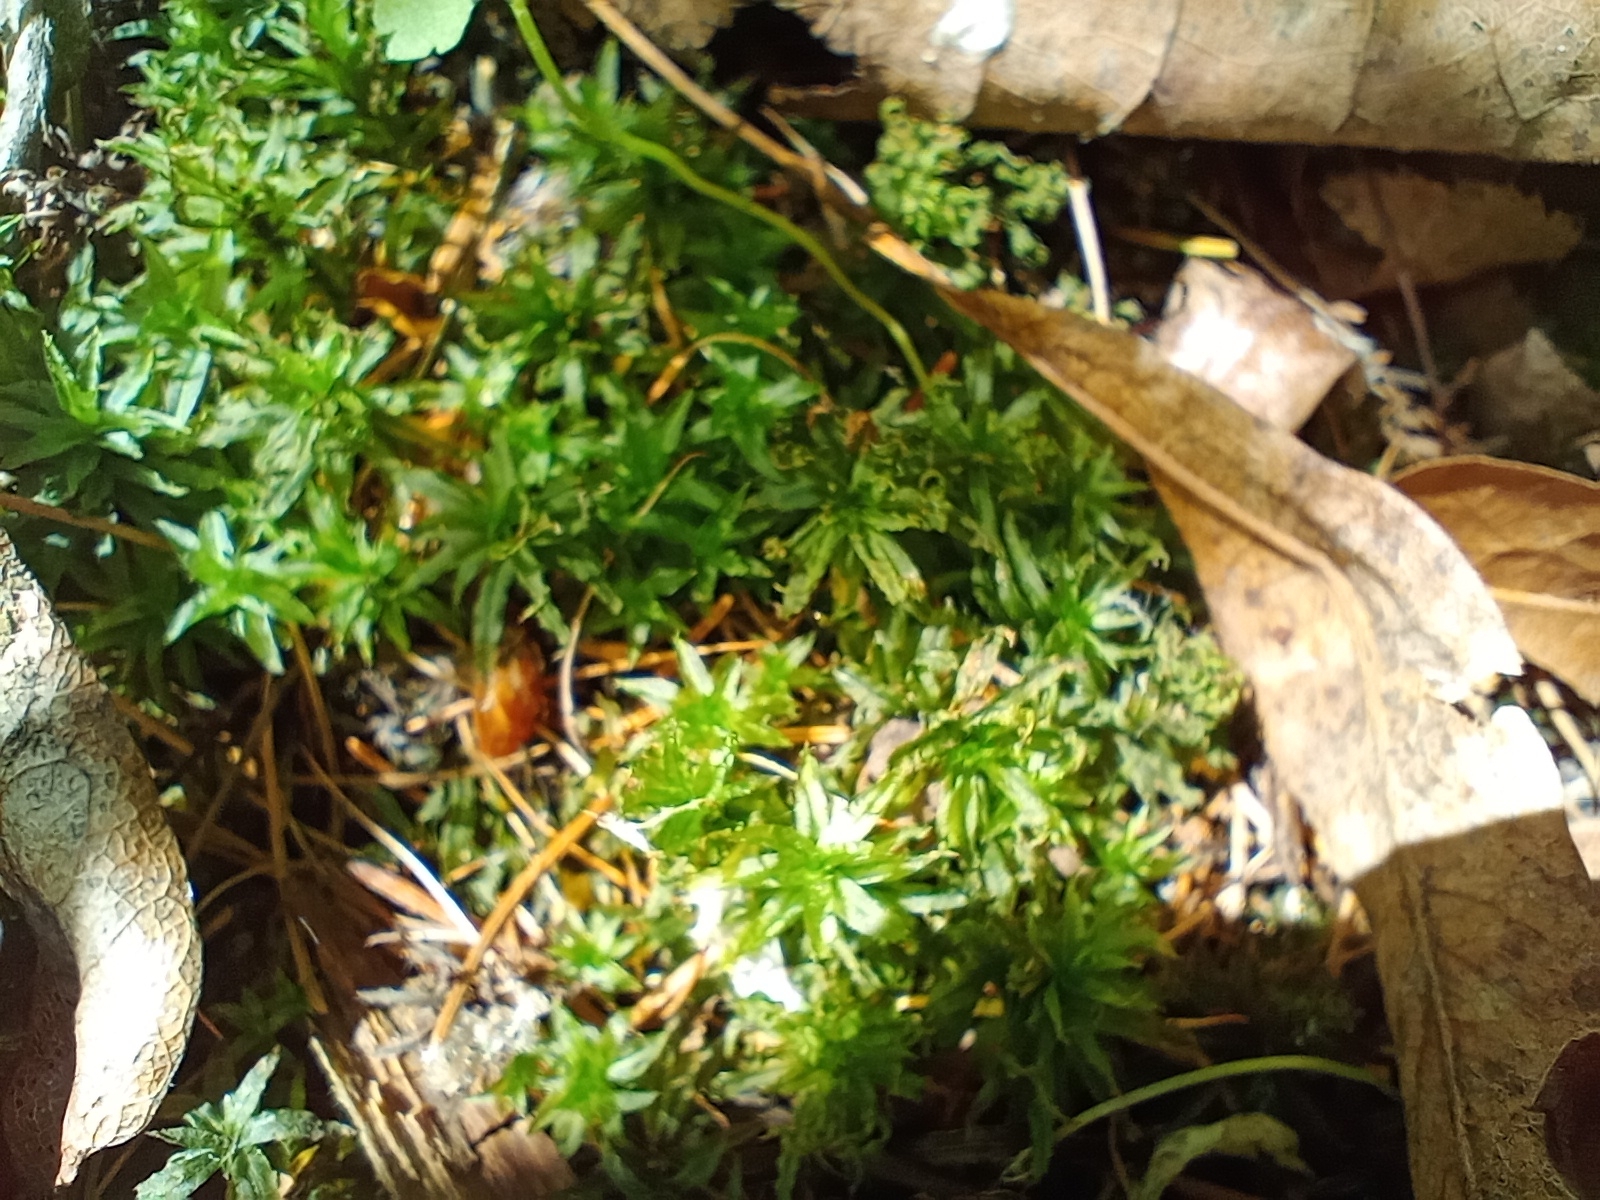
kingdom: Plantae
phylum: Bryophyta
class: Polytrichopsida
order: Polytrichales
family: Polytrichaceae
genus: Atrichum
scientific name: Atrichum undulatum
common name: Common smoothcap
